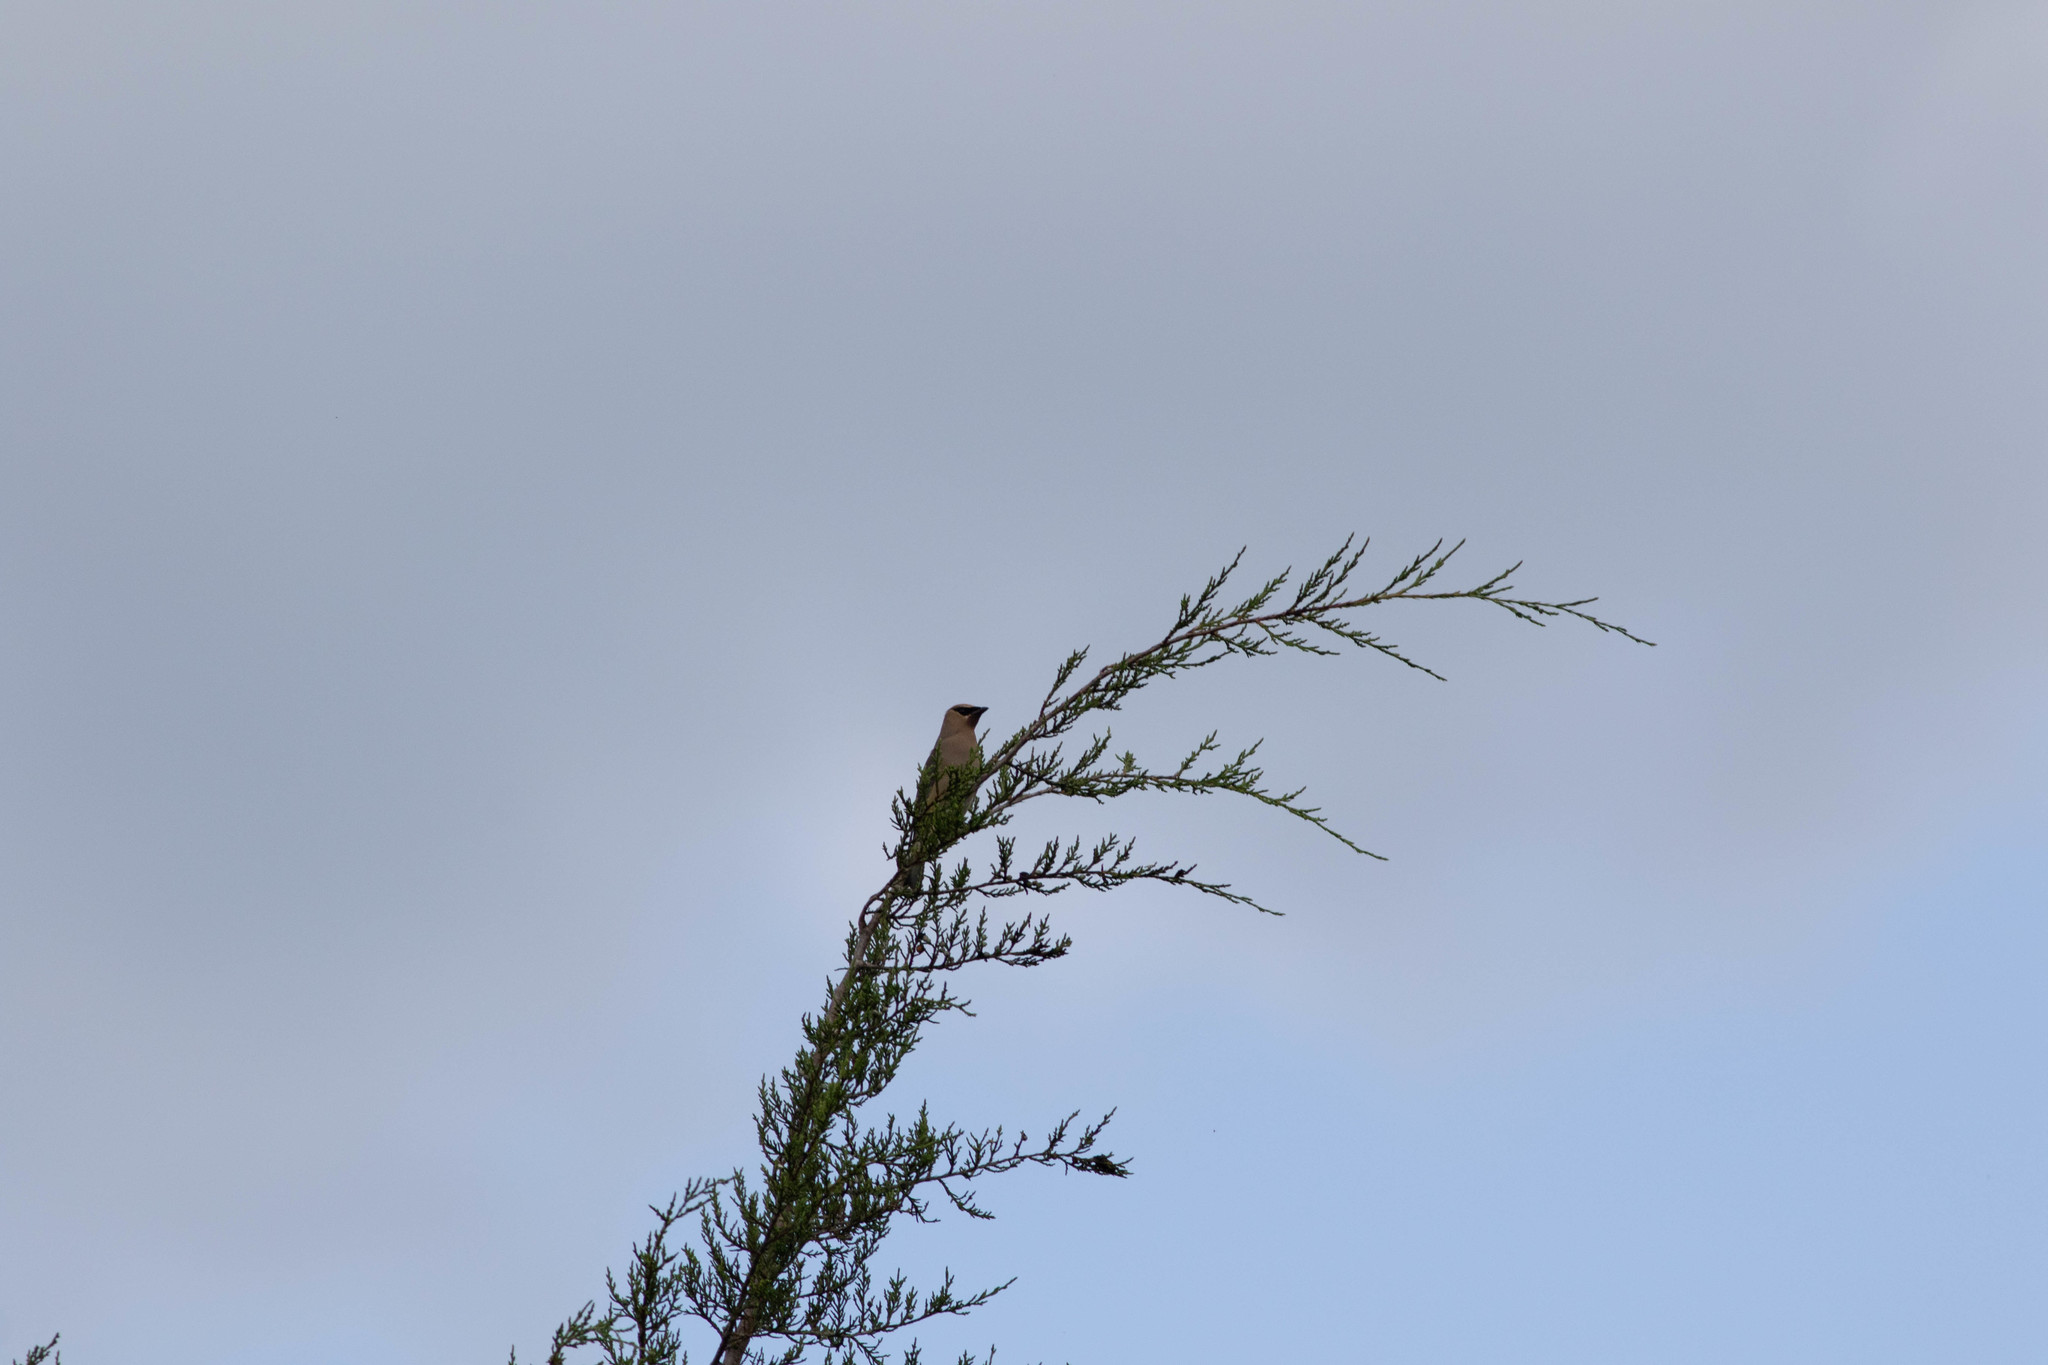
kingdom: Animalia
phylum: Chordata
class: Aves
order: Passeriformes
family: Bombycillidae
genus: Bombycilla
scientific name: Bombycilla cedrorum
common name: Cedar waxwing
